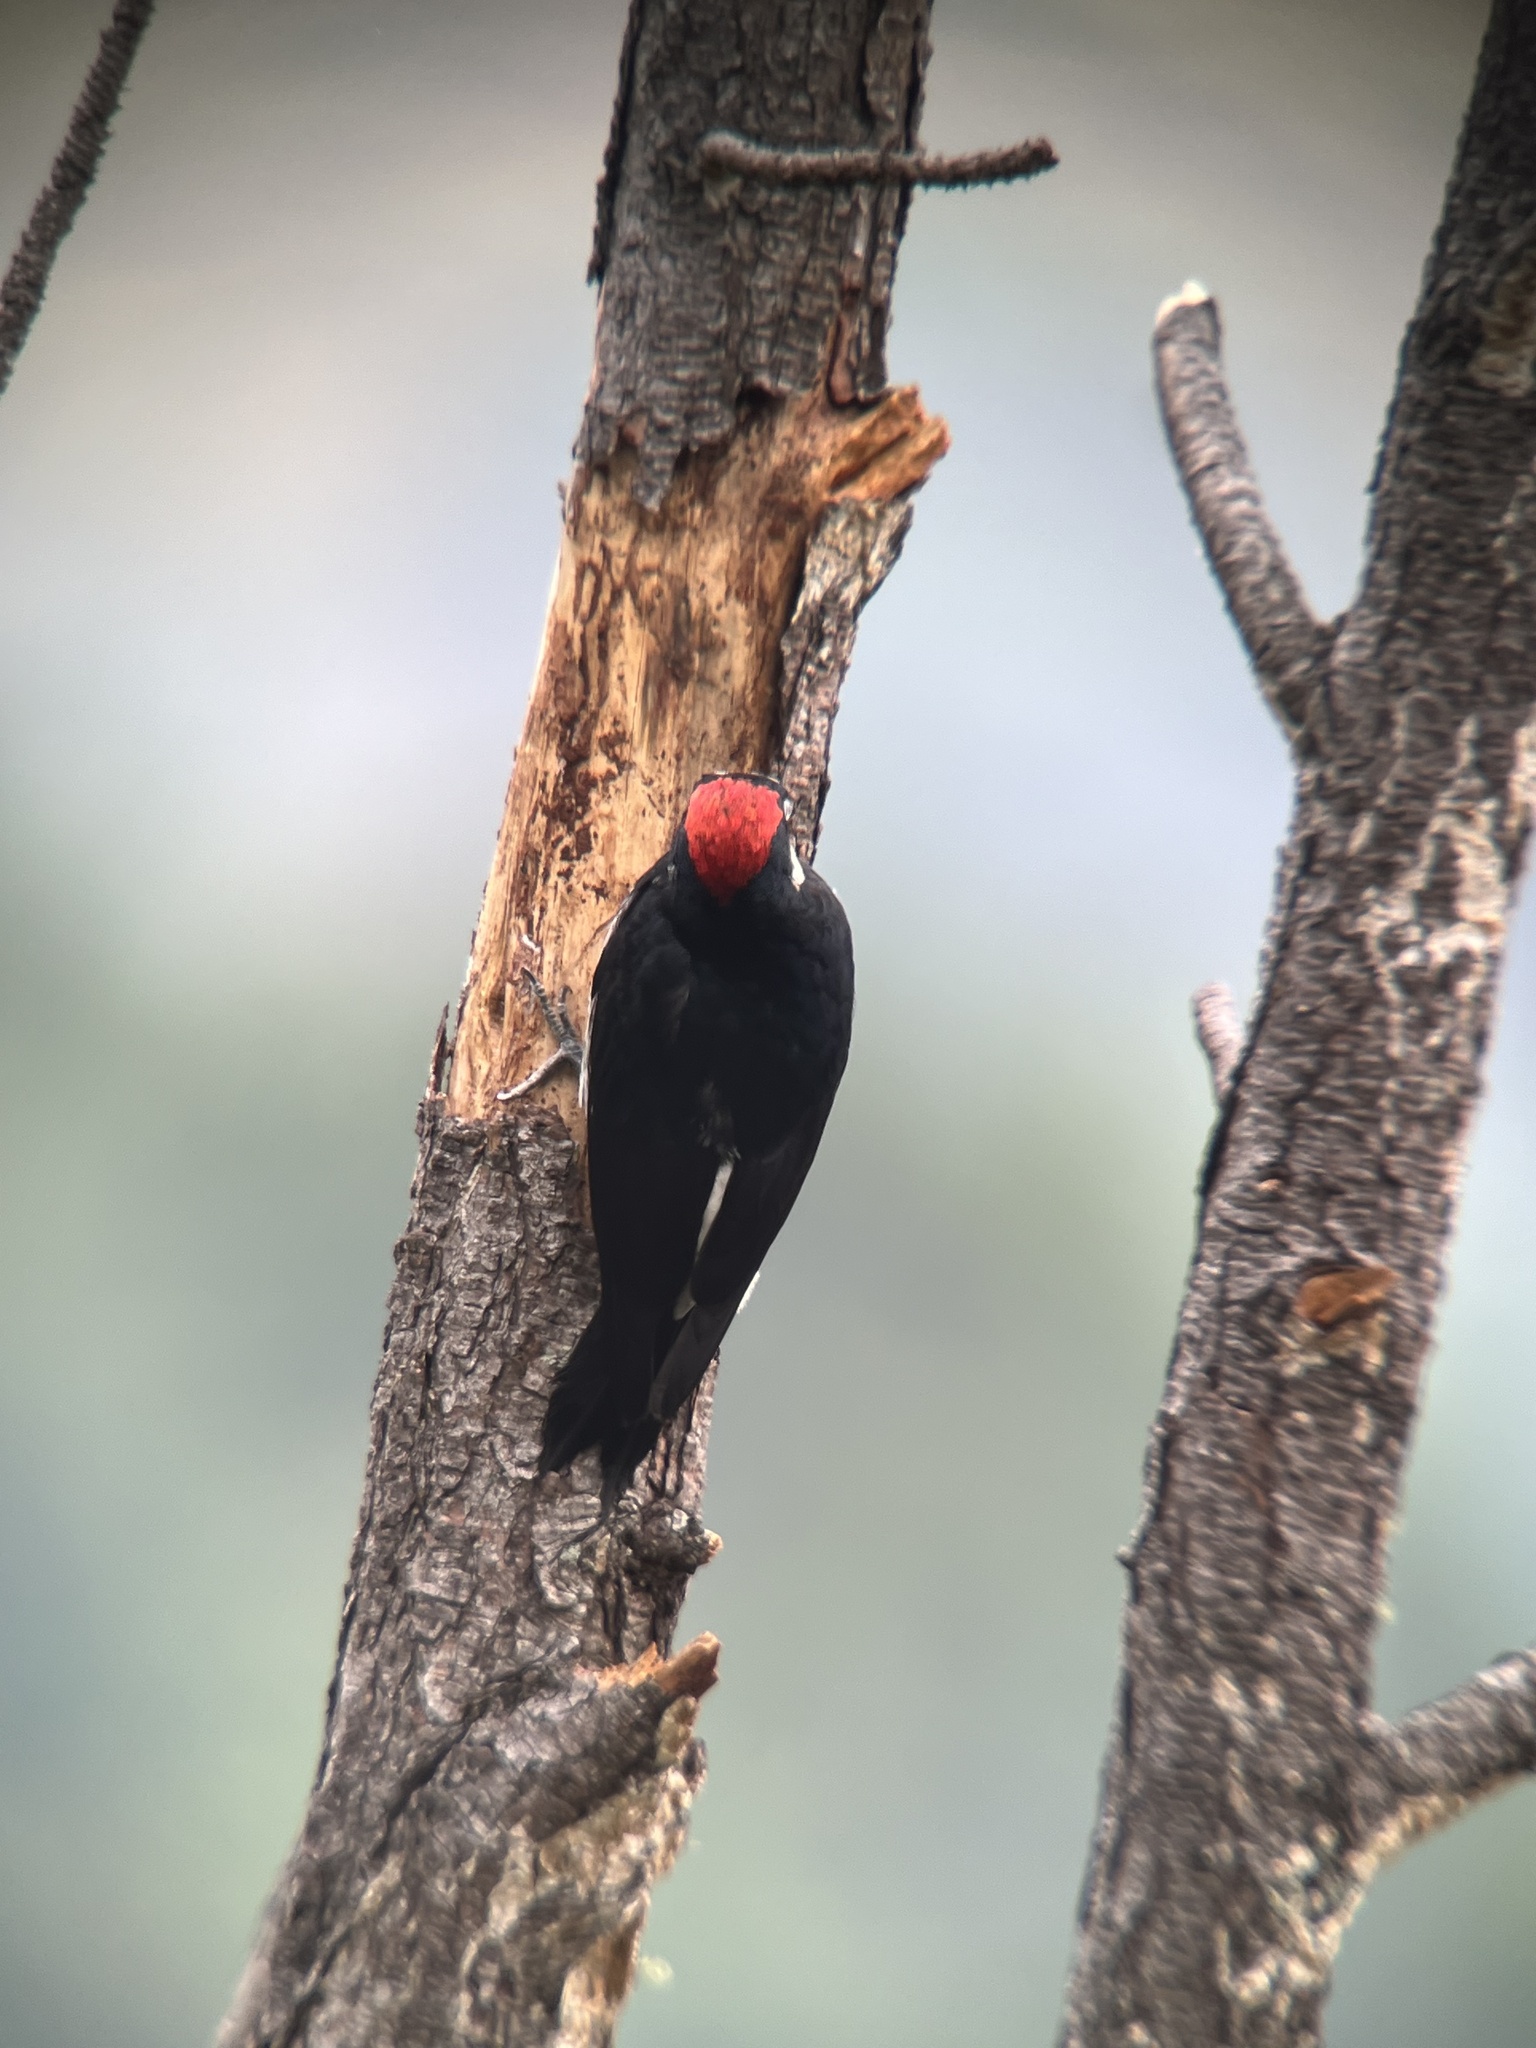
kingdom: Animalia
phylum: Chordata
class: Aves
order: Piciformes
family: Picidae
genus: Melanerpes
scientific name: Melanerpes formicivorus
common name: Acorn woodpecker
